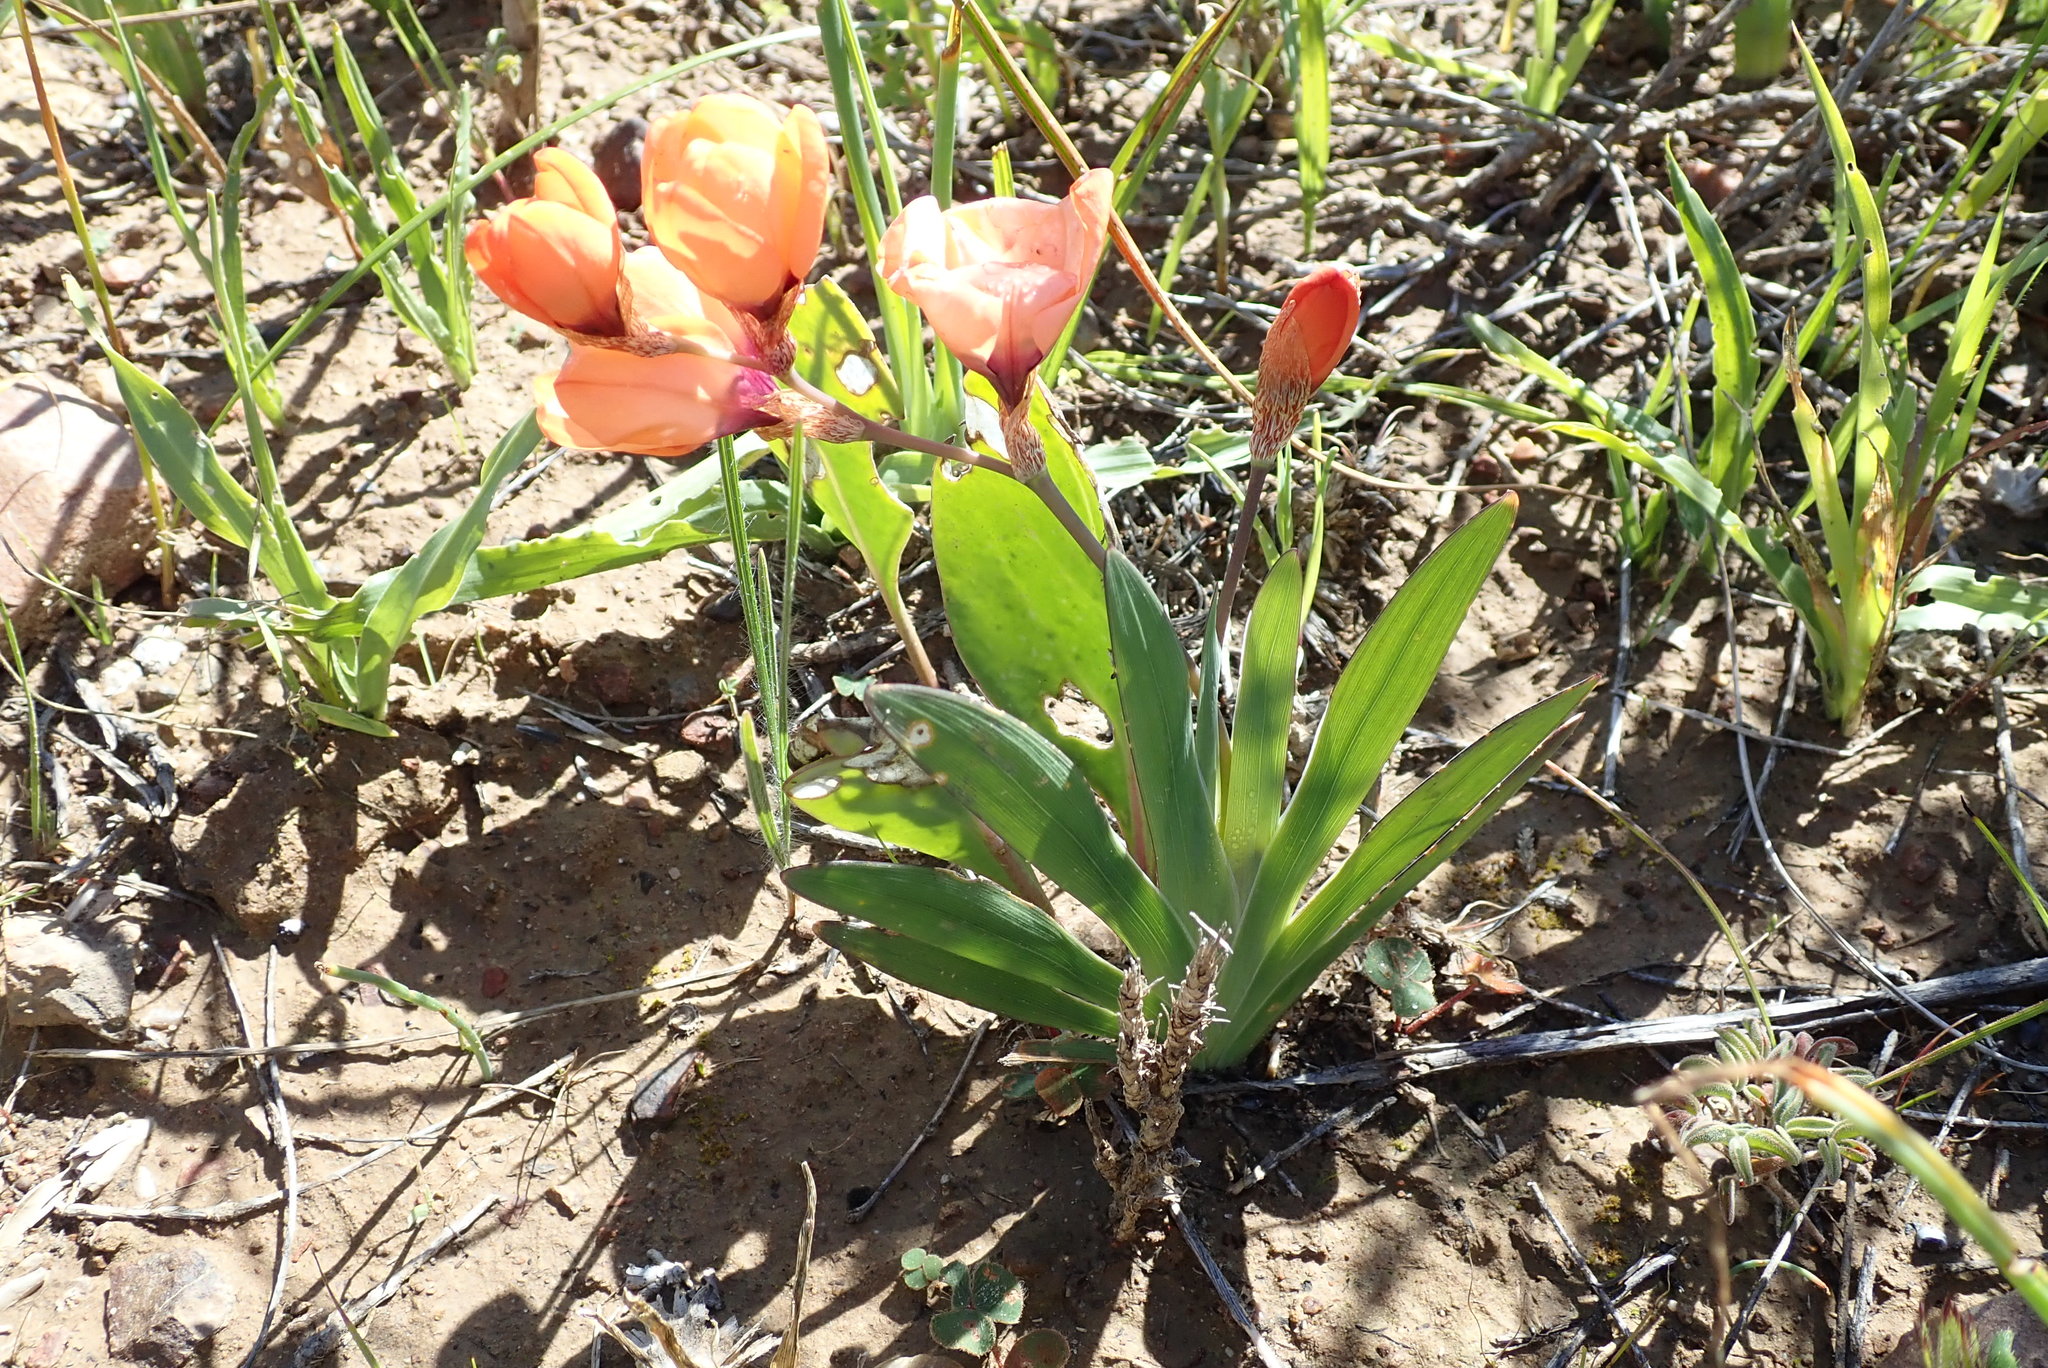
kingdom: Plantae
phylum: Tracheophyta
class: Liliopsida
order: Asparagales
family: Iridaceae
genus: Sparaxis
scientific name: Sparaxis elegans
